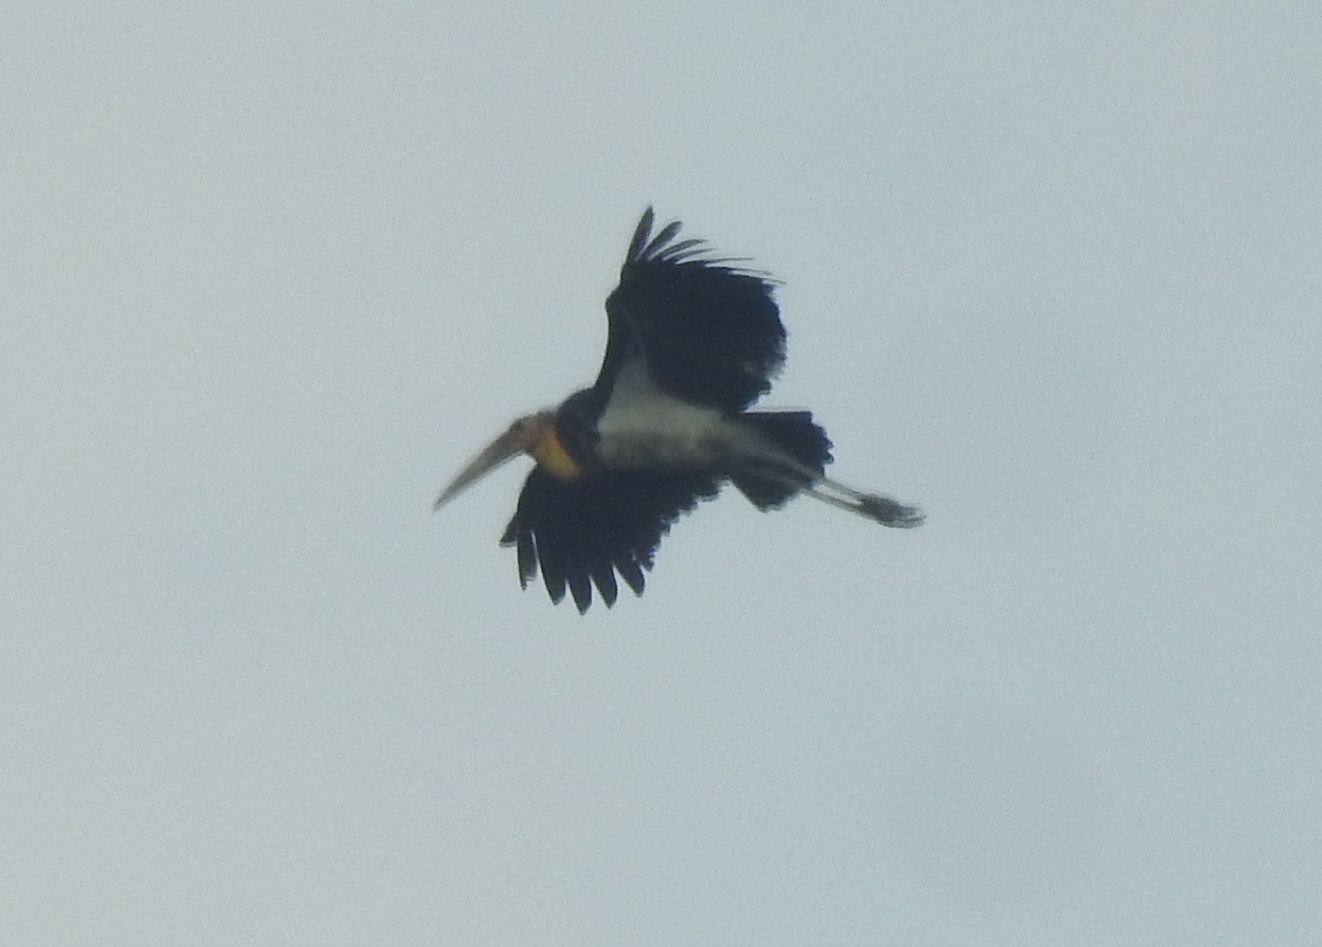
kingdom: Animalia
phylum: Chordata
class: Aves
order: Ciconiiformes
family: Ciconiidae
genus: Leptoptilos
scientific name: Leptoptilos javanicus
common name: Lesser adjutant
